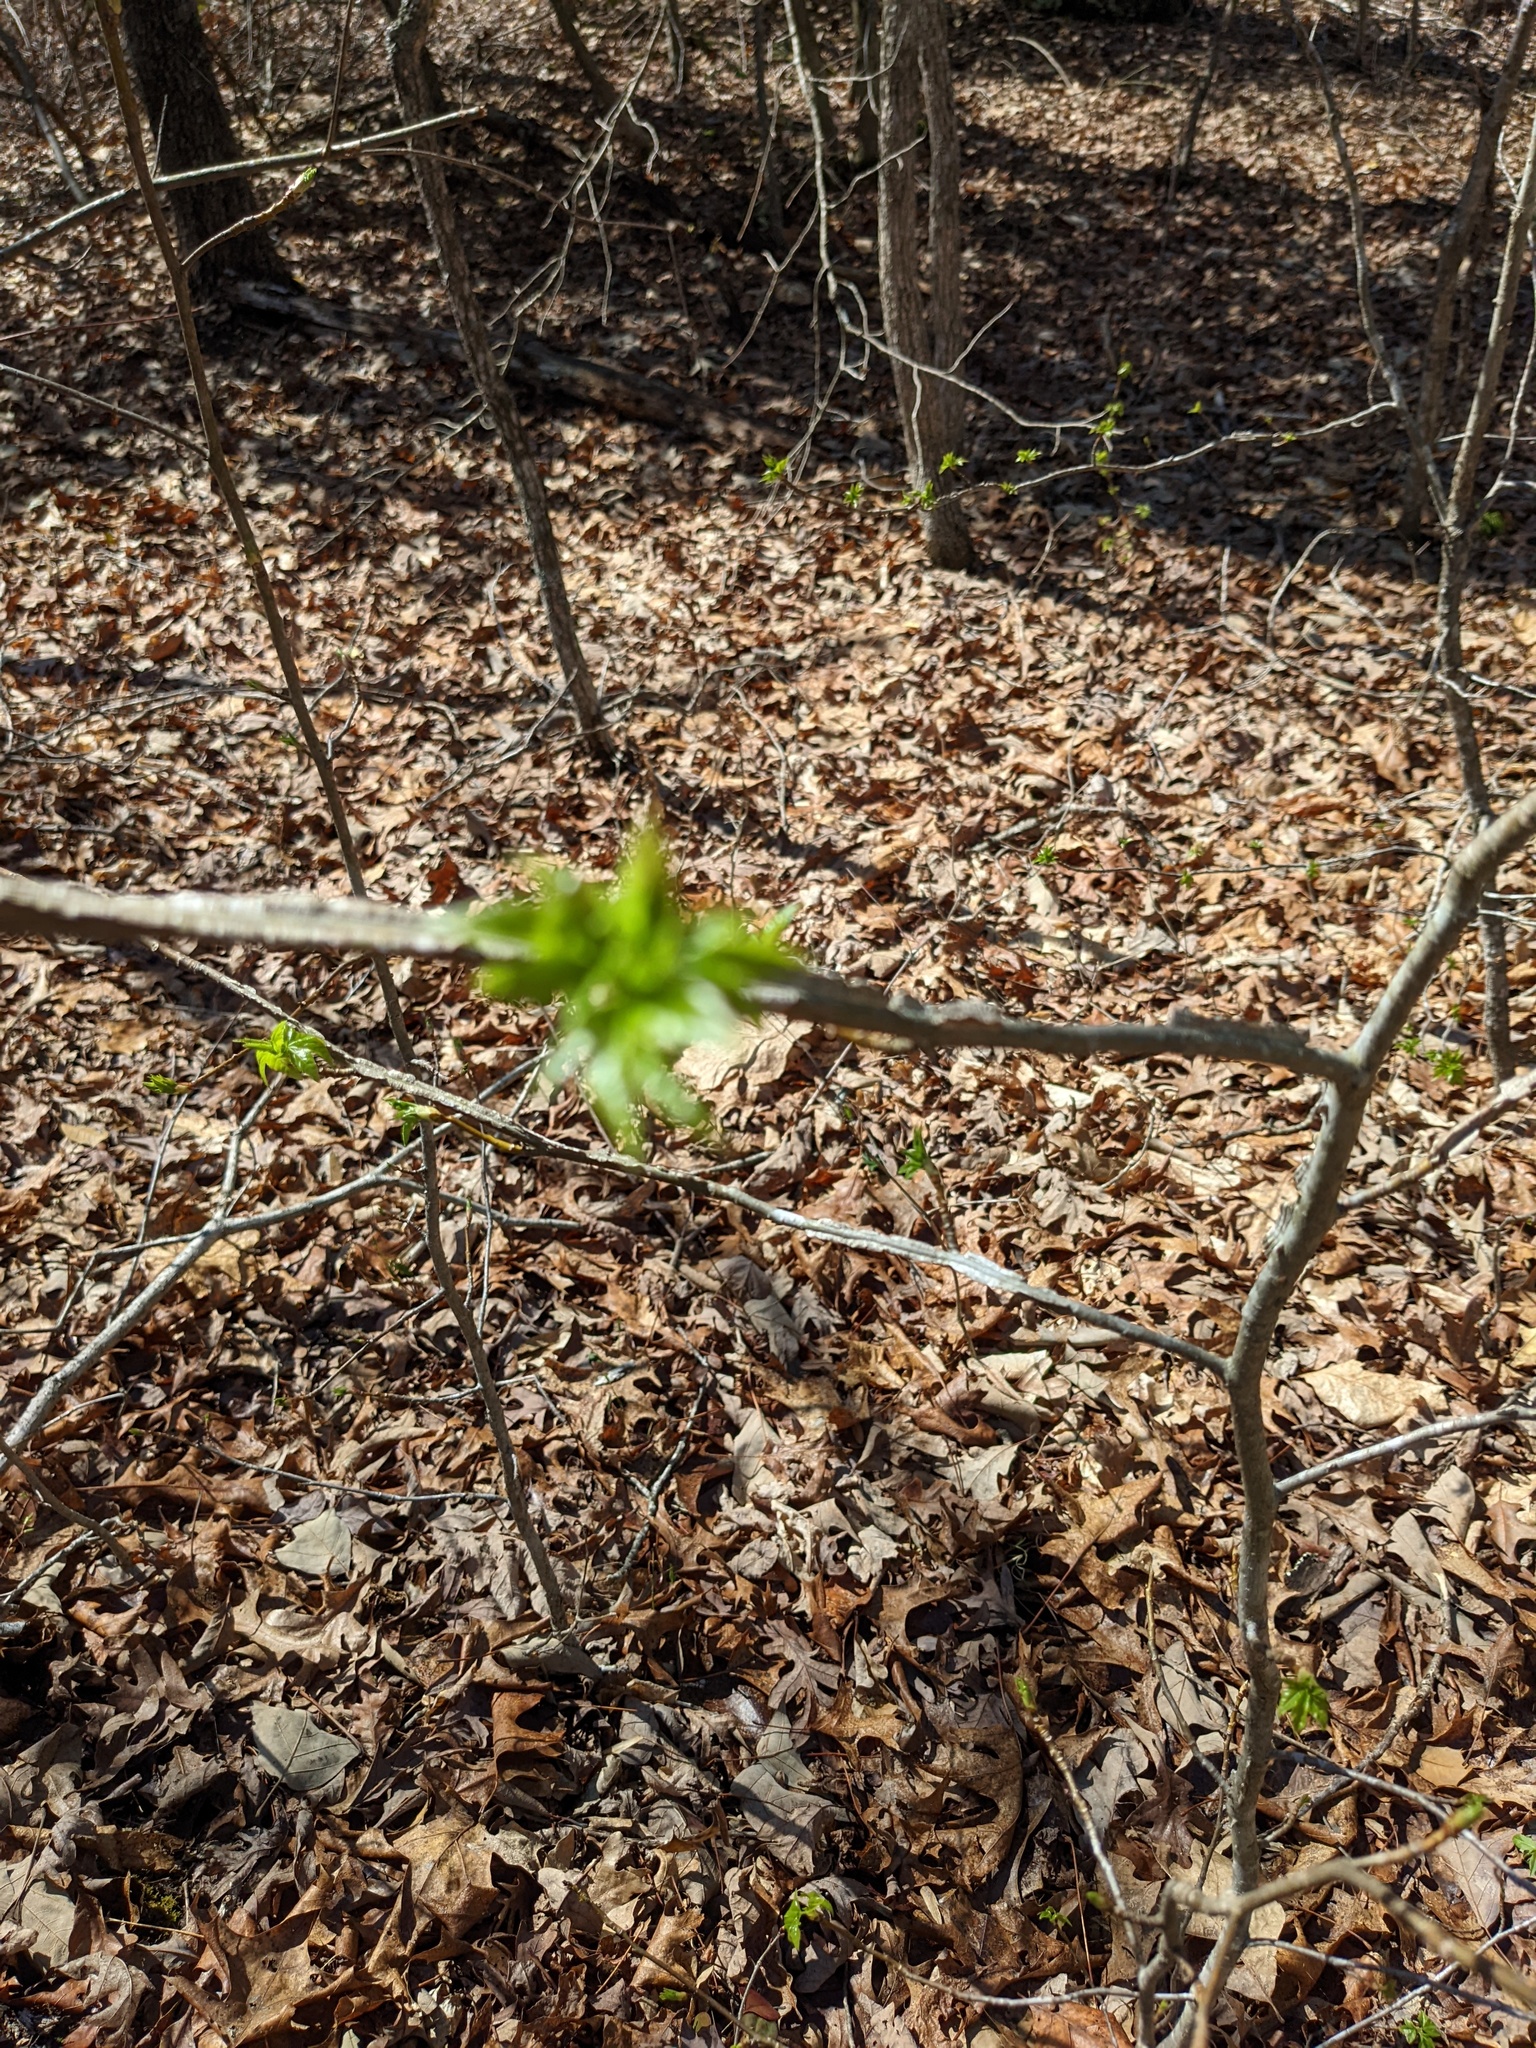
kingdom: Plantae
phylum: Tracheophyta
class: Magnoliopsida
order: Saxifragales
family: Altingiaceae
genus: Liquidambar
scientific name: Liquidambar styraciflua
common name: Sweet gum
